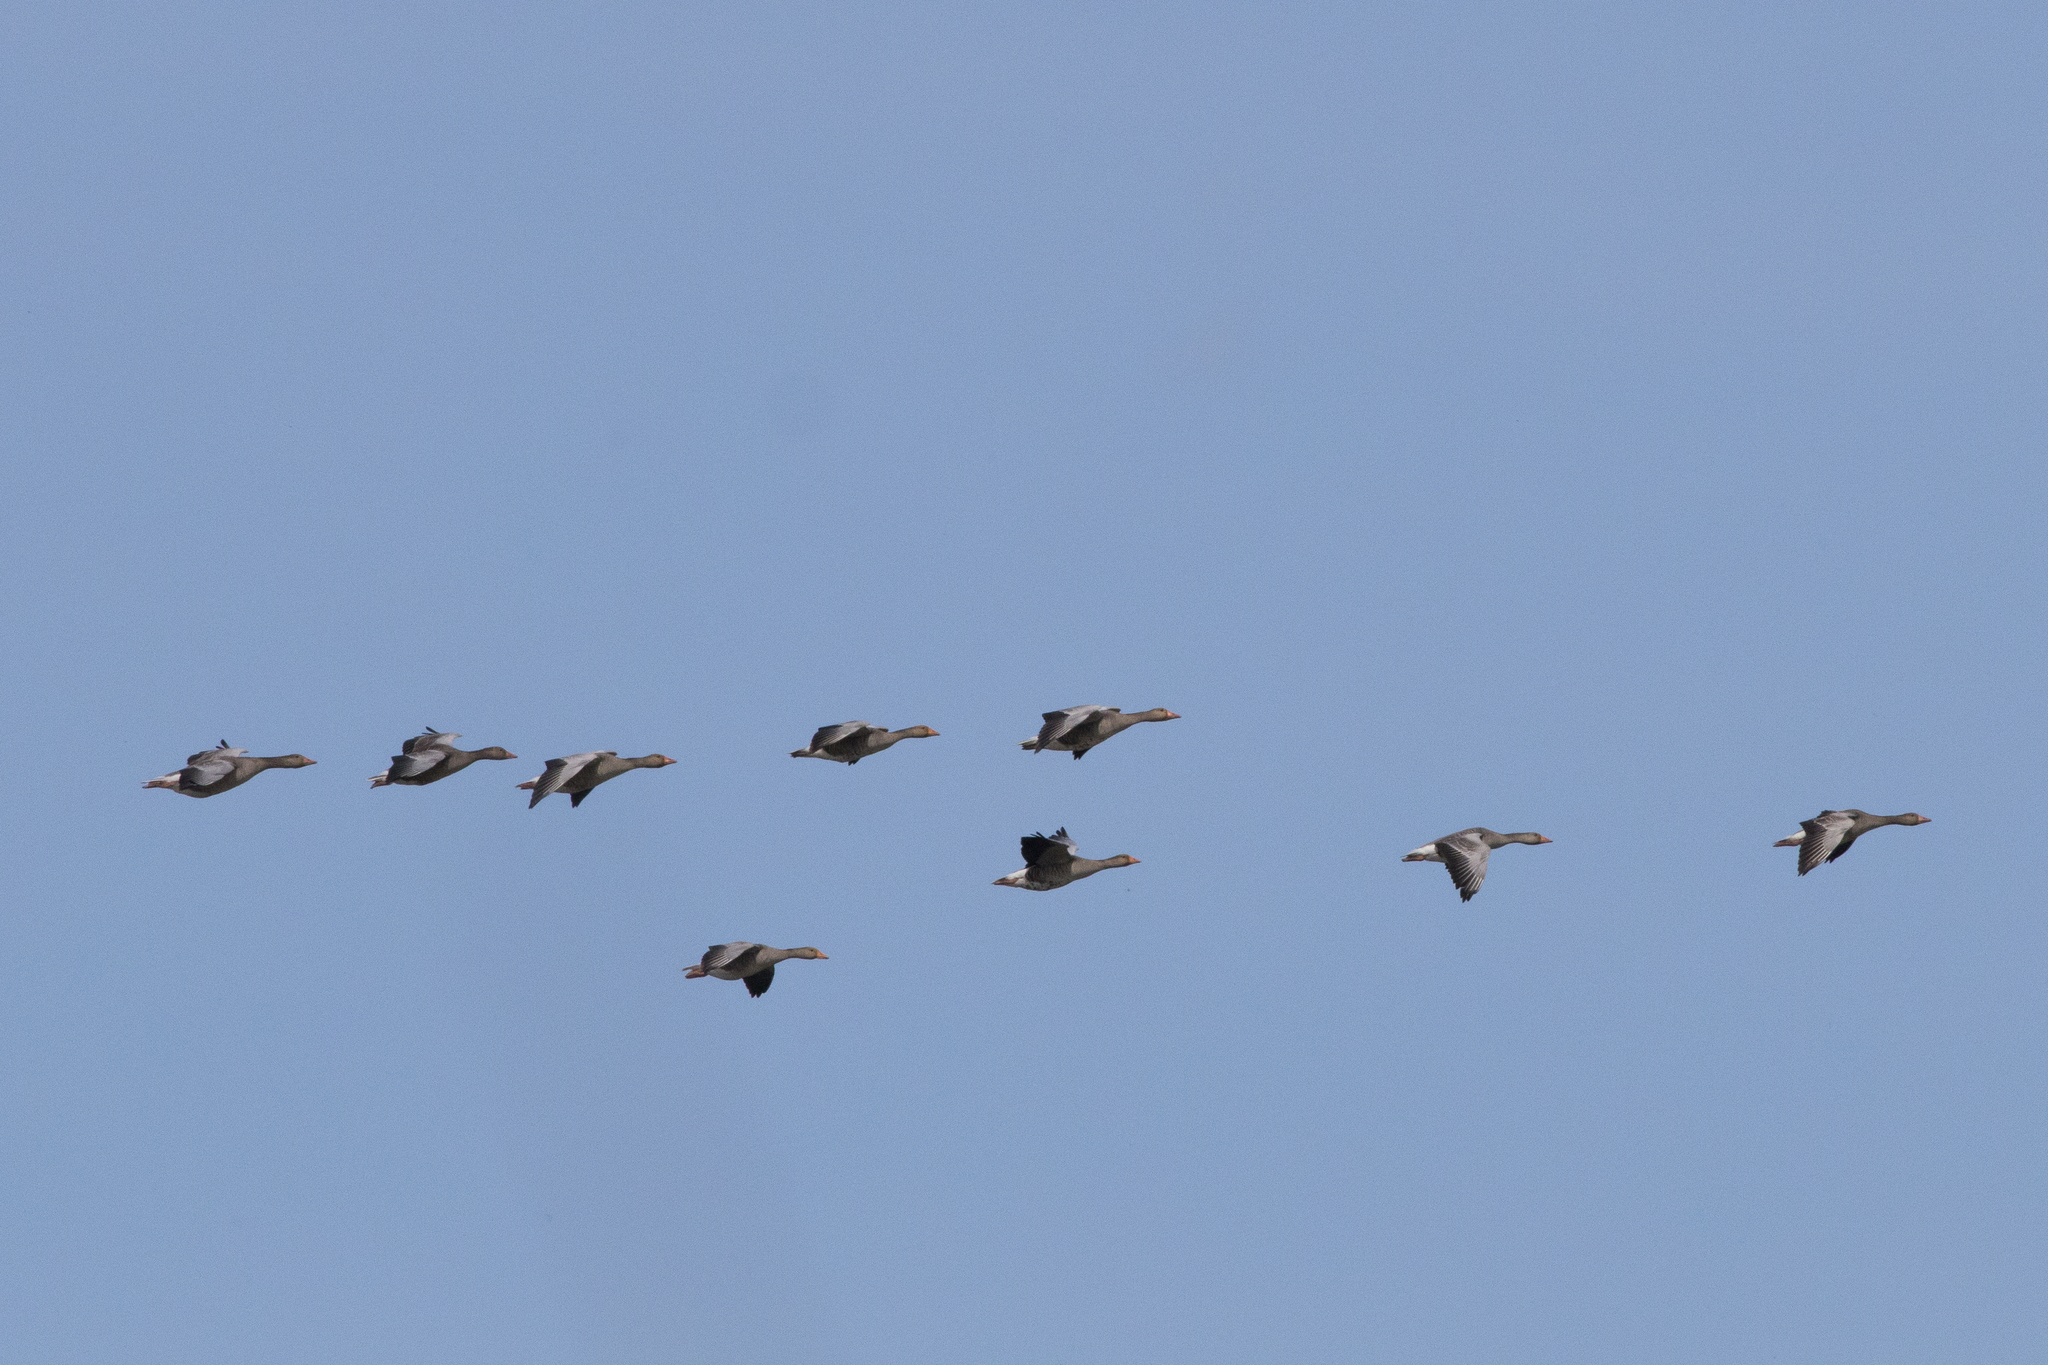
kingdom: Animalia
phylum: Chordata
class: Aves
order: Anseriformes
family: Anatidae
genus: Anser
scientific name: Anser anser
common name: Greylag goose
